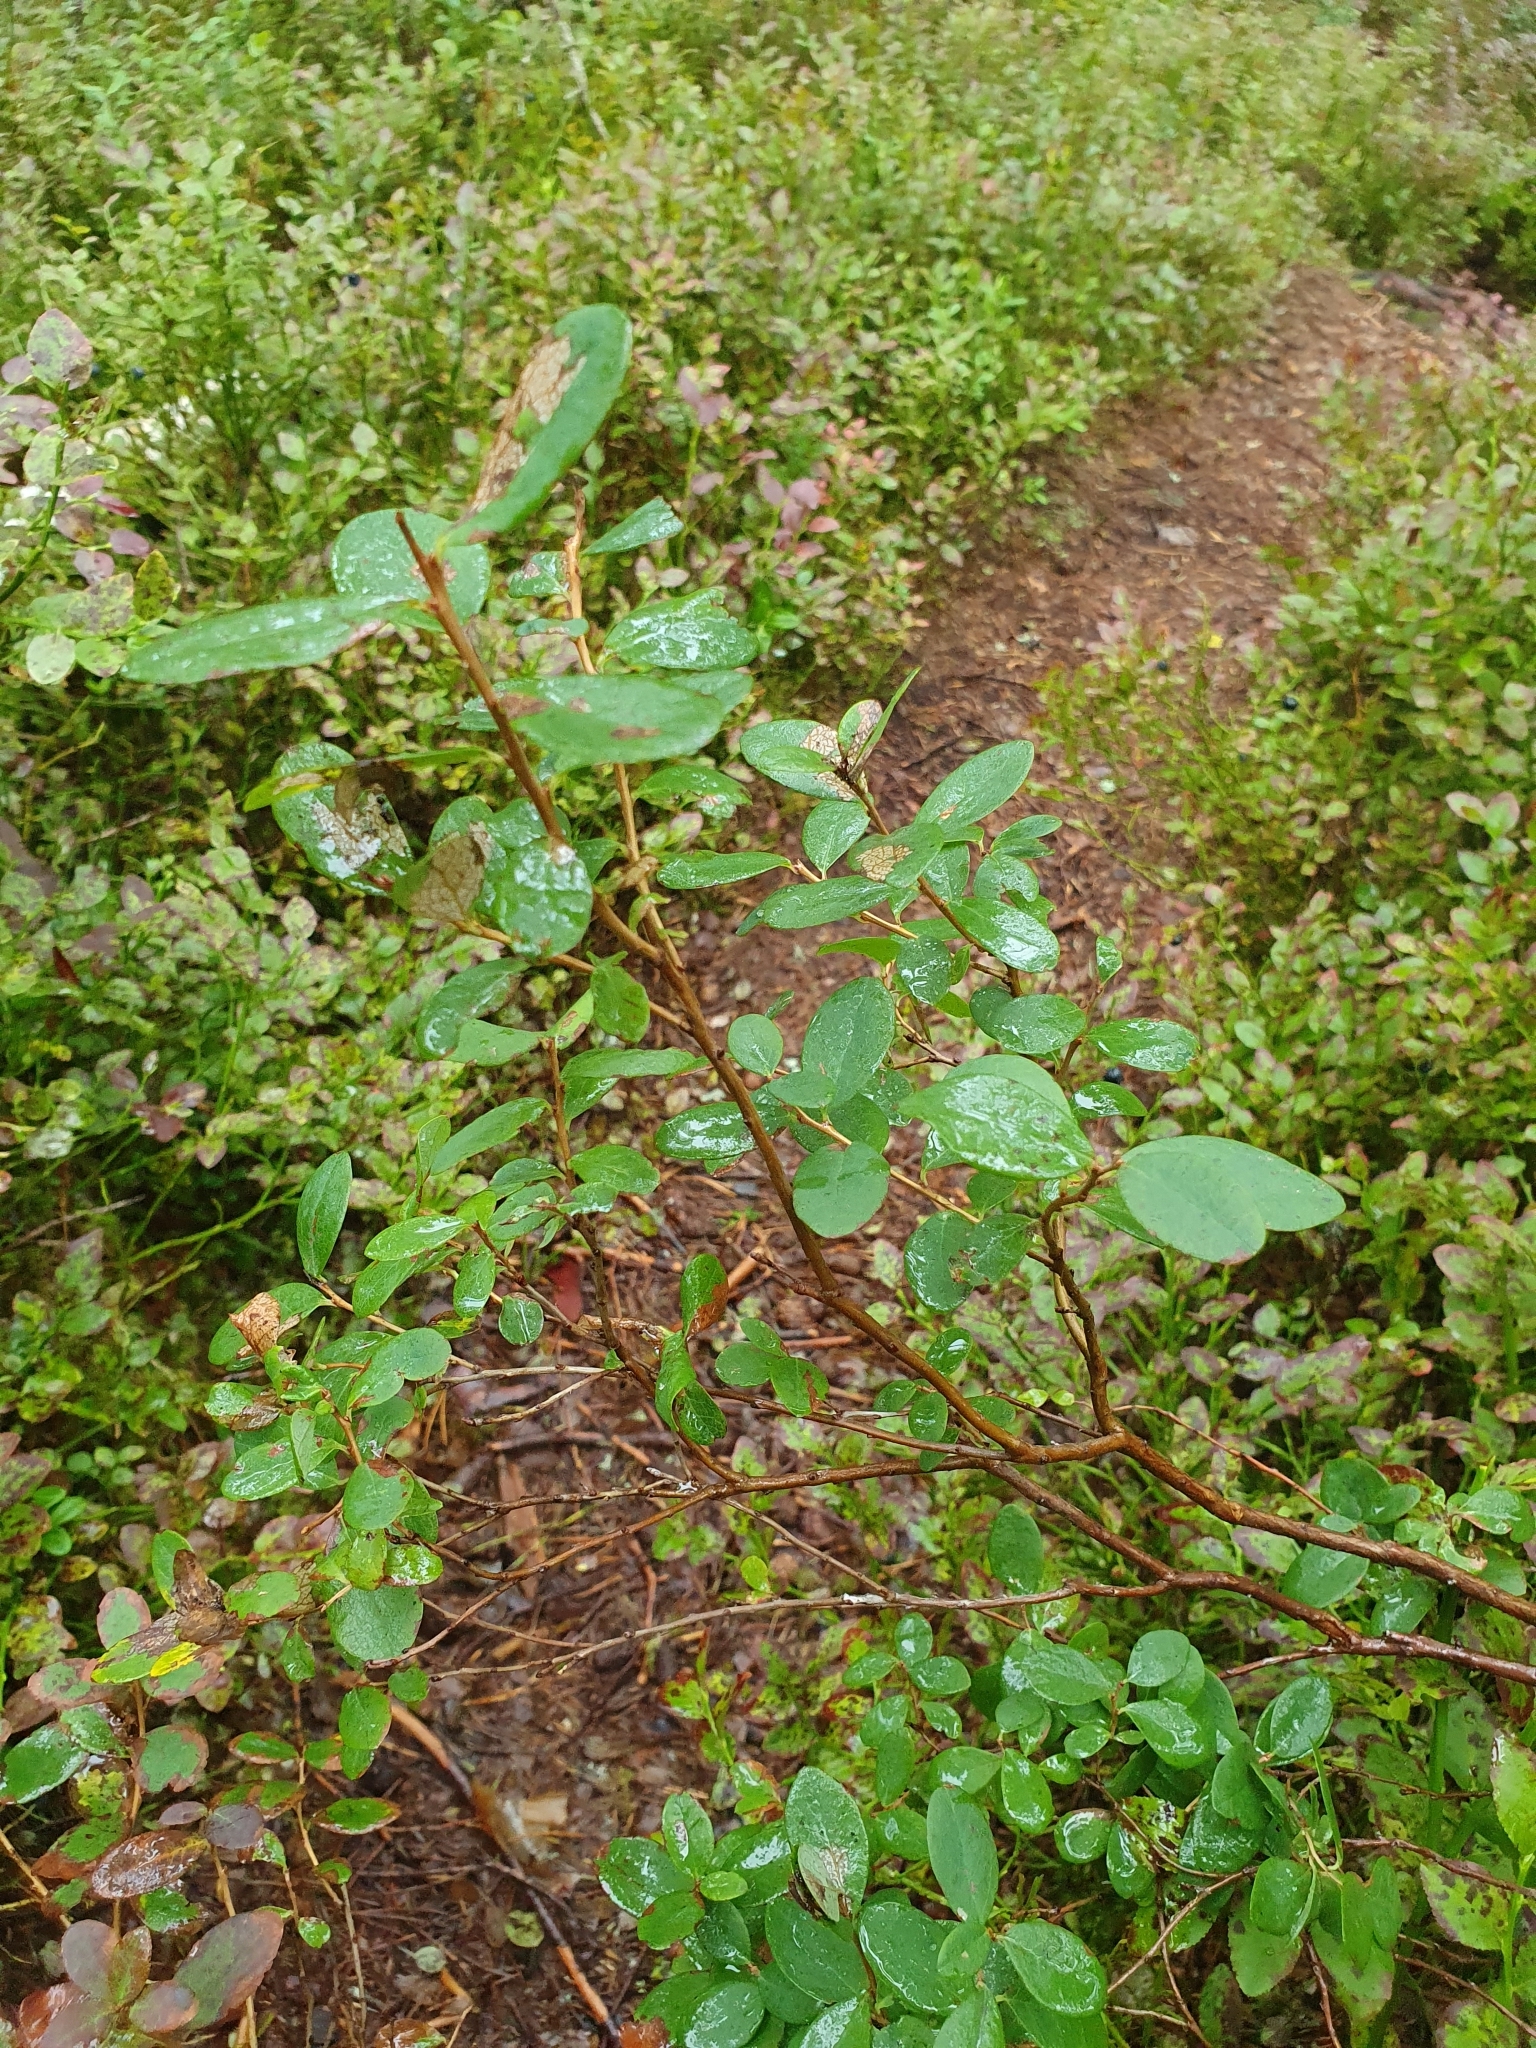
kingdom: Plantae
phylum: Tracheophyta
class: Magnoliopsida
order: Ericales
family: Ericaceae
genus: Vaccinium
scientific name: Vaccinium uliginosum
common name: Bog bilberry
